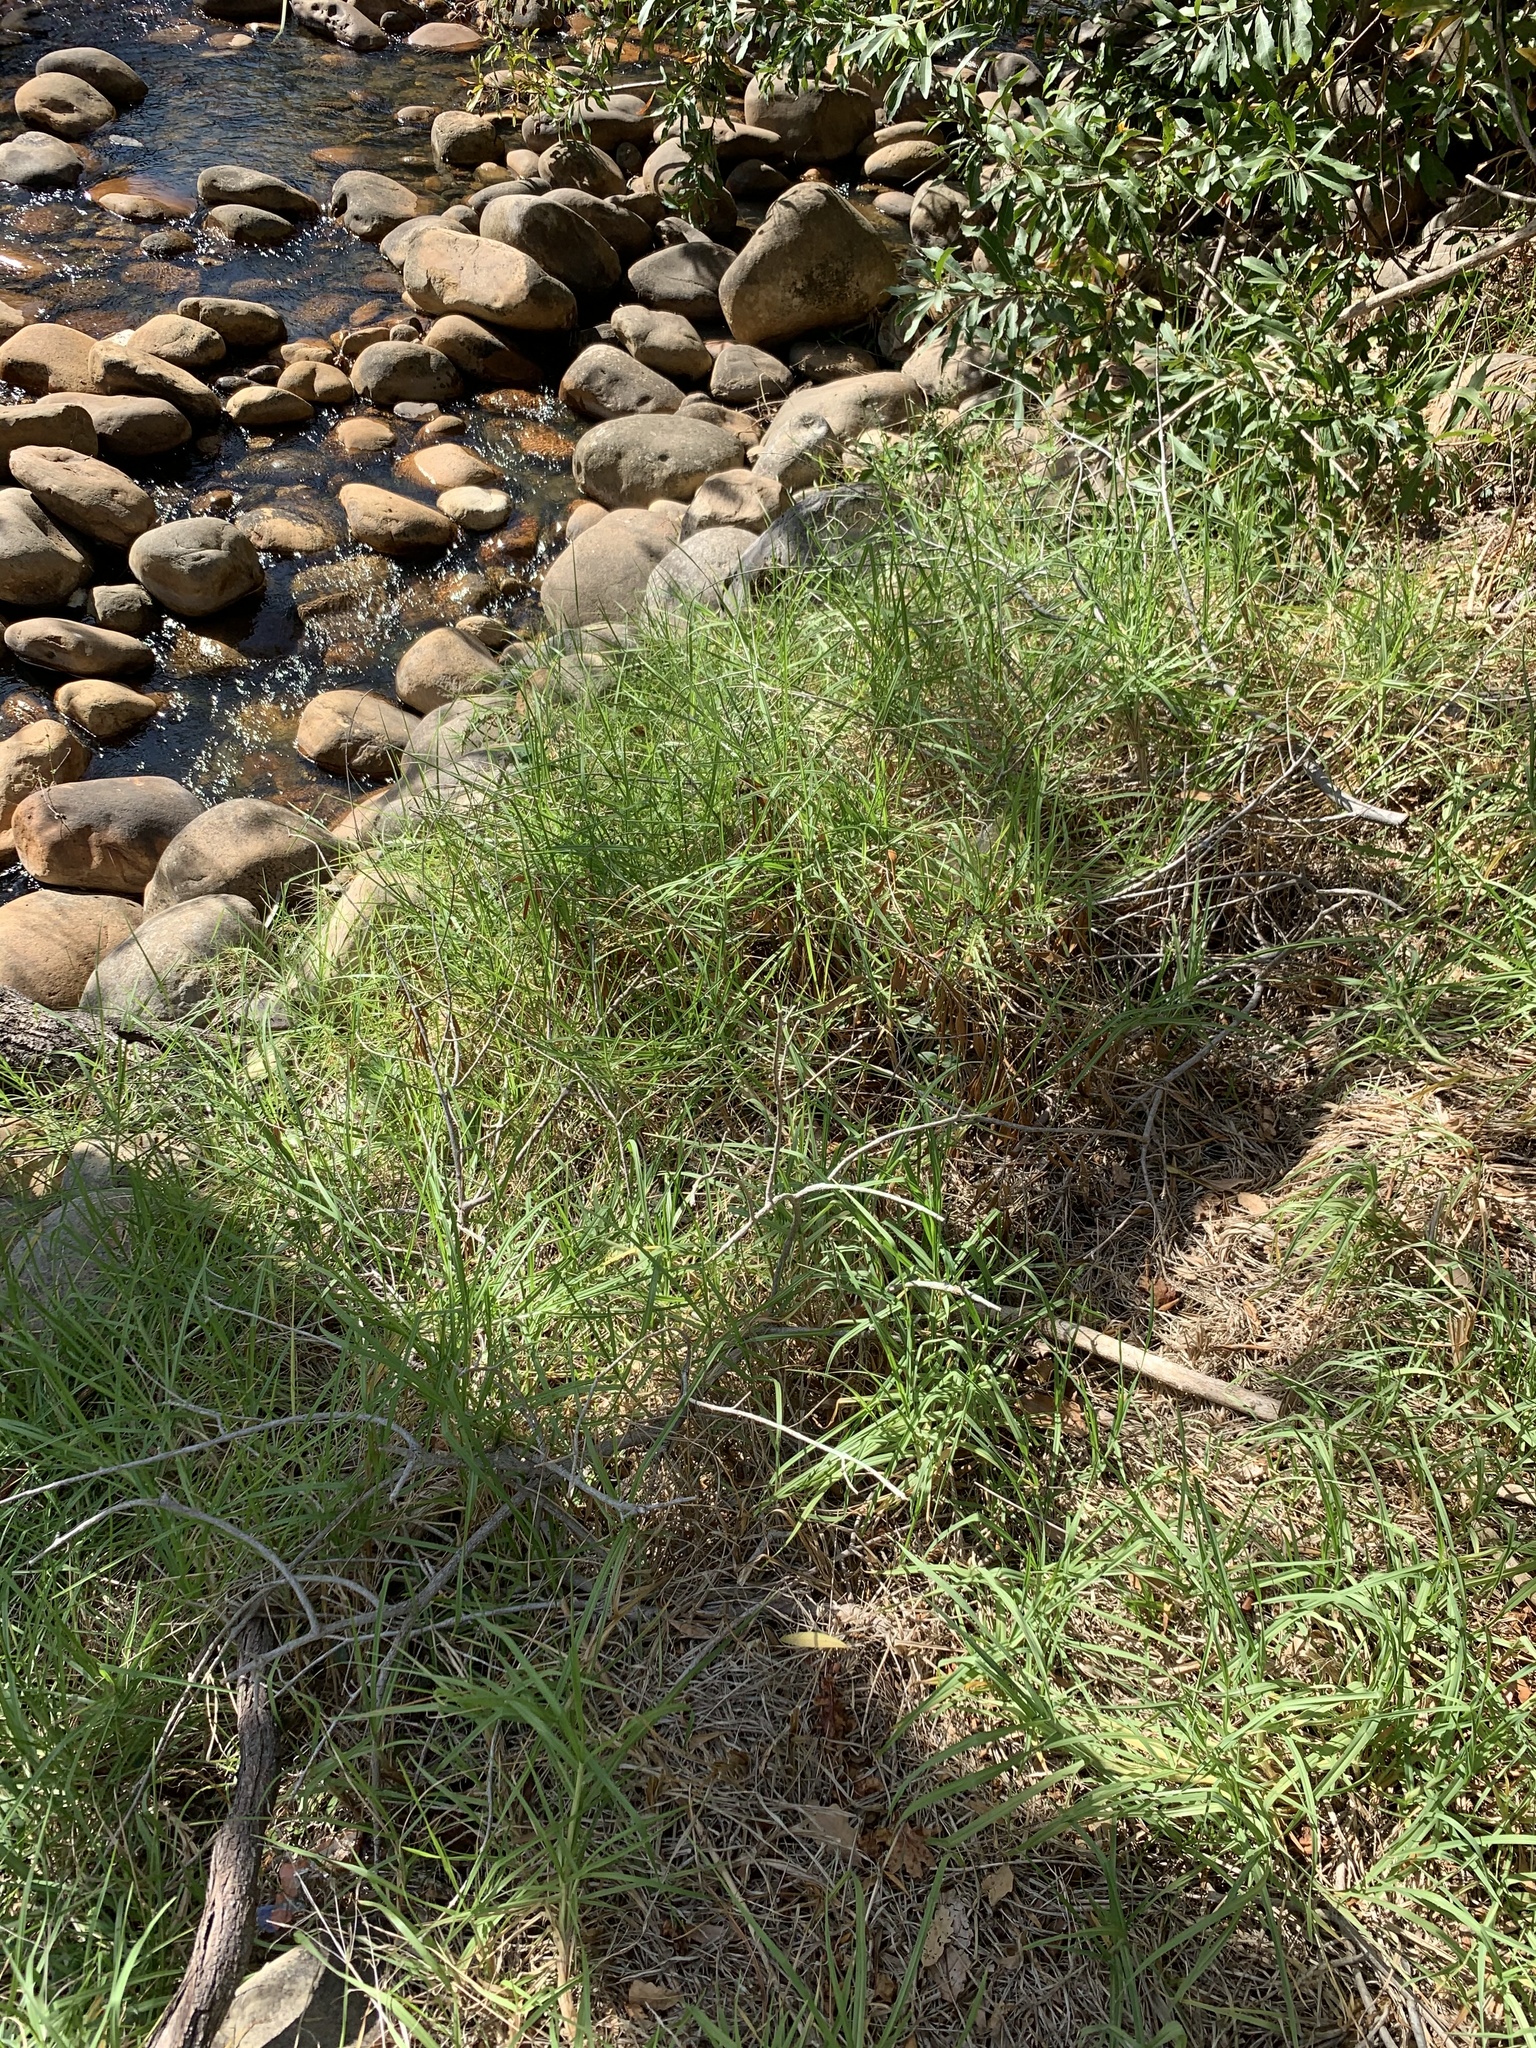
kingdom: Plantae
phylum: Tracheophyta
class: Liliopsida
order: Poales
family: Poaceae
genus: Cenchrus
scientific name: Cenchrus clandestinus
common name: Kikuyugrass
